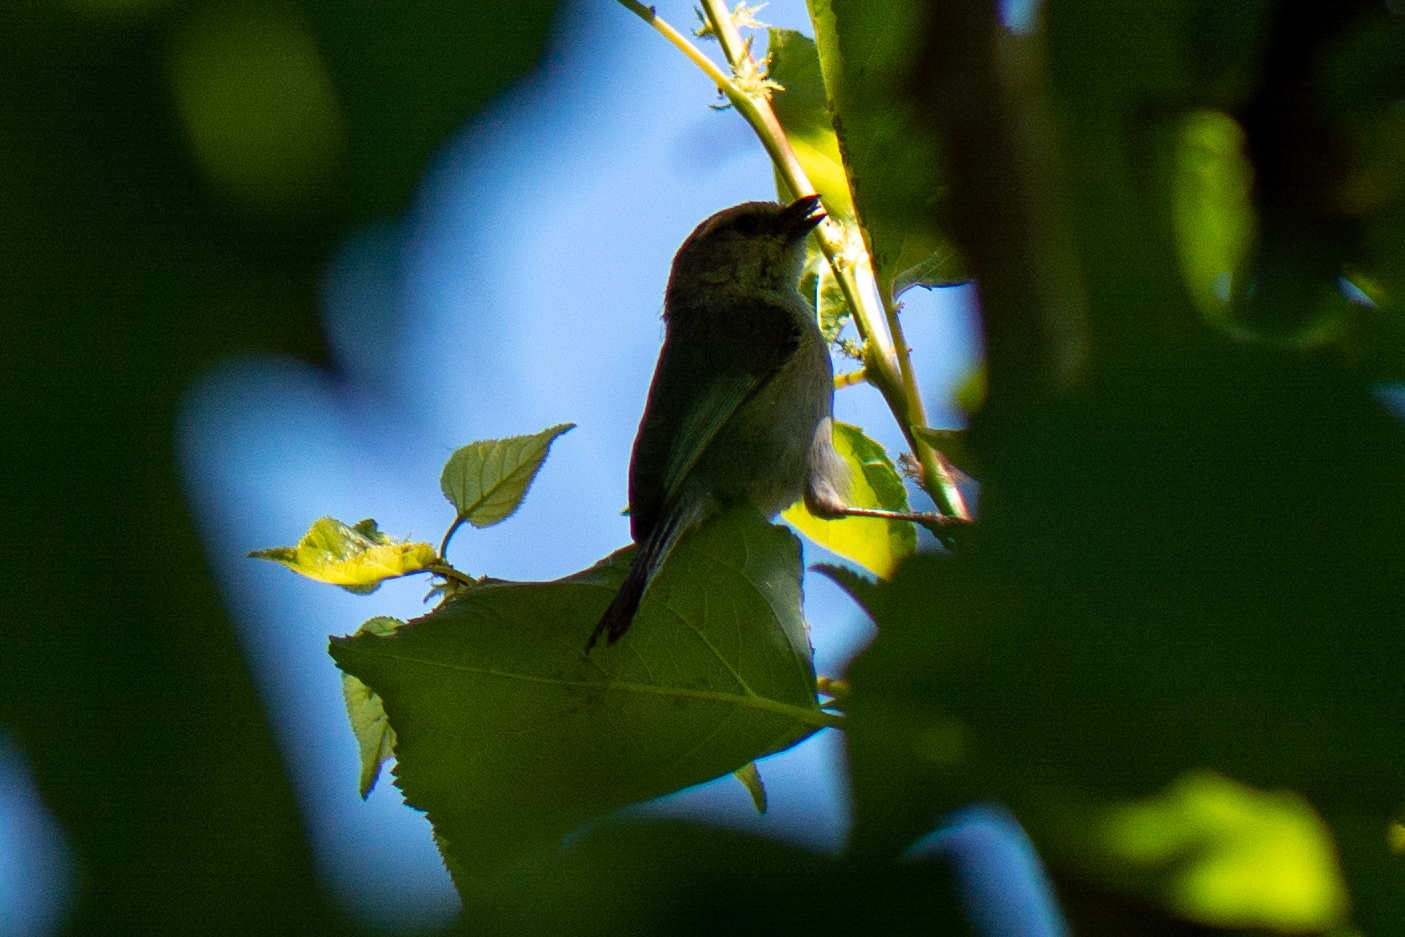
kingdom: Animalia
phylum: Chordata
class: Aves
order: Passeriformes
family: Aegithalidae
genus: Psaltriparus
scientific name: Psaltriparus minimus
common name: American bushtit
